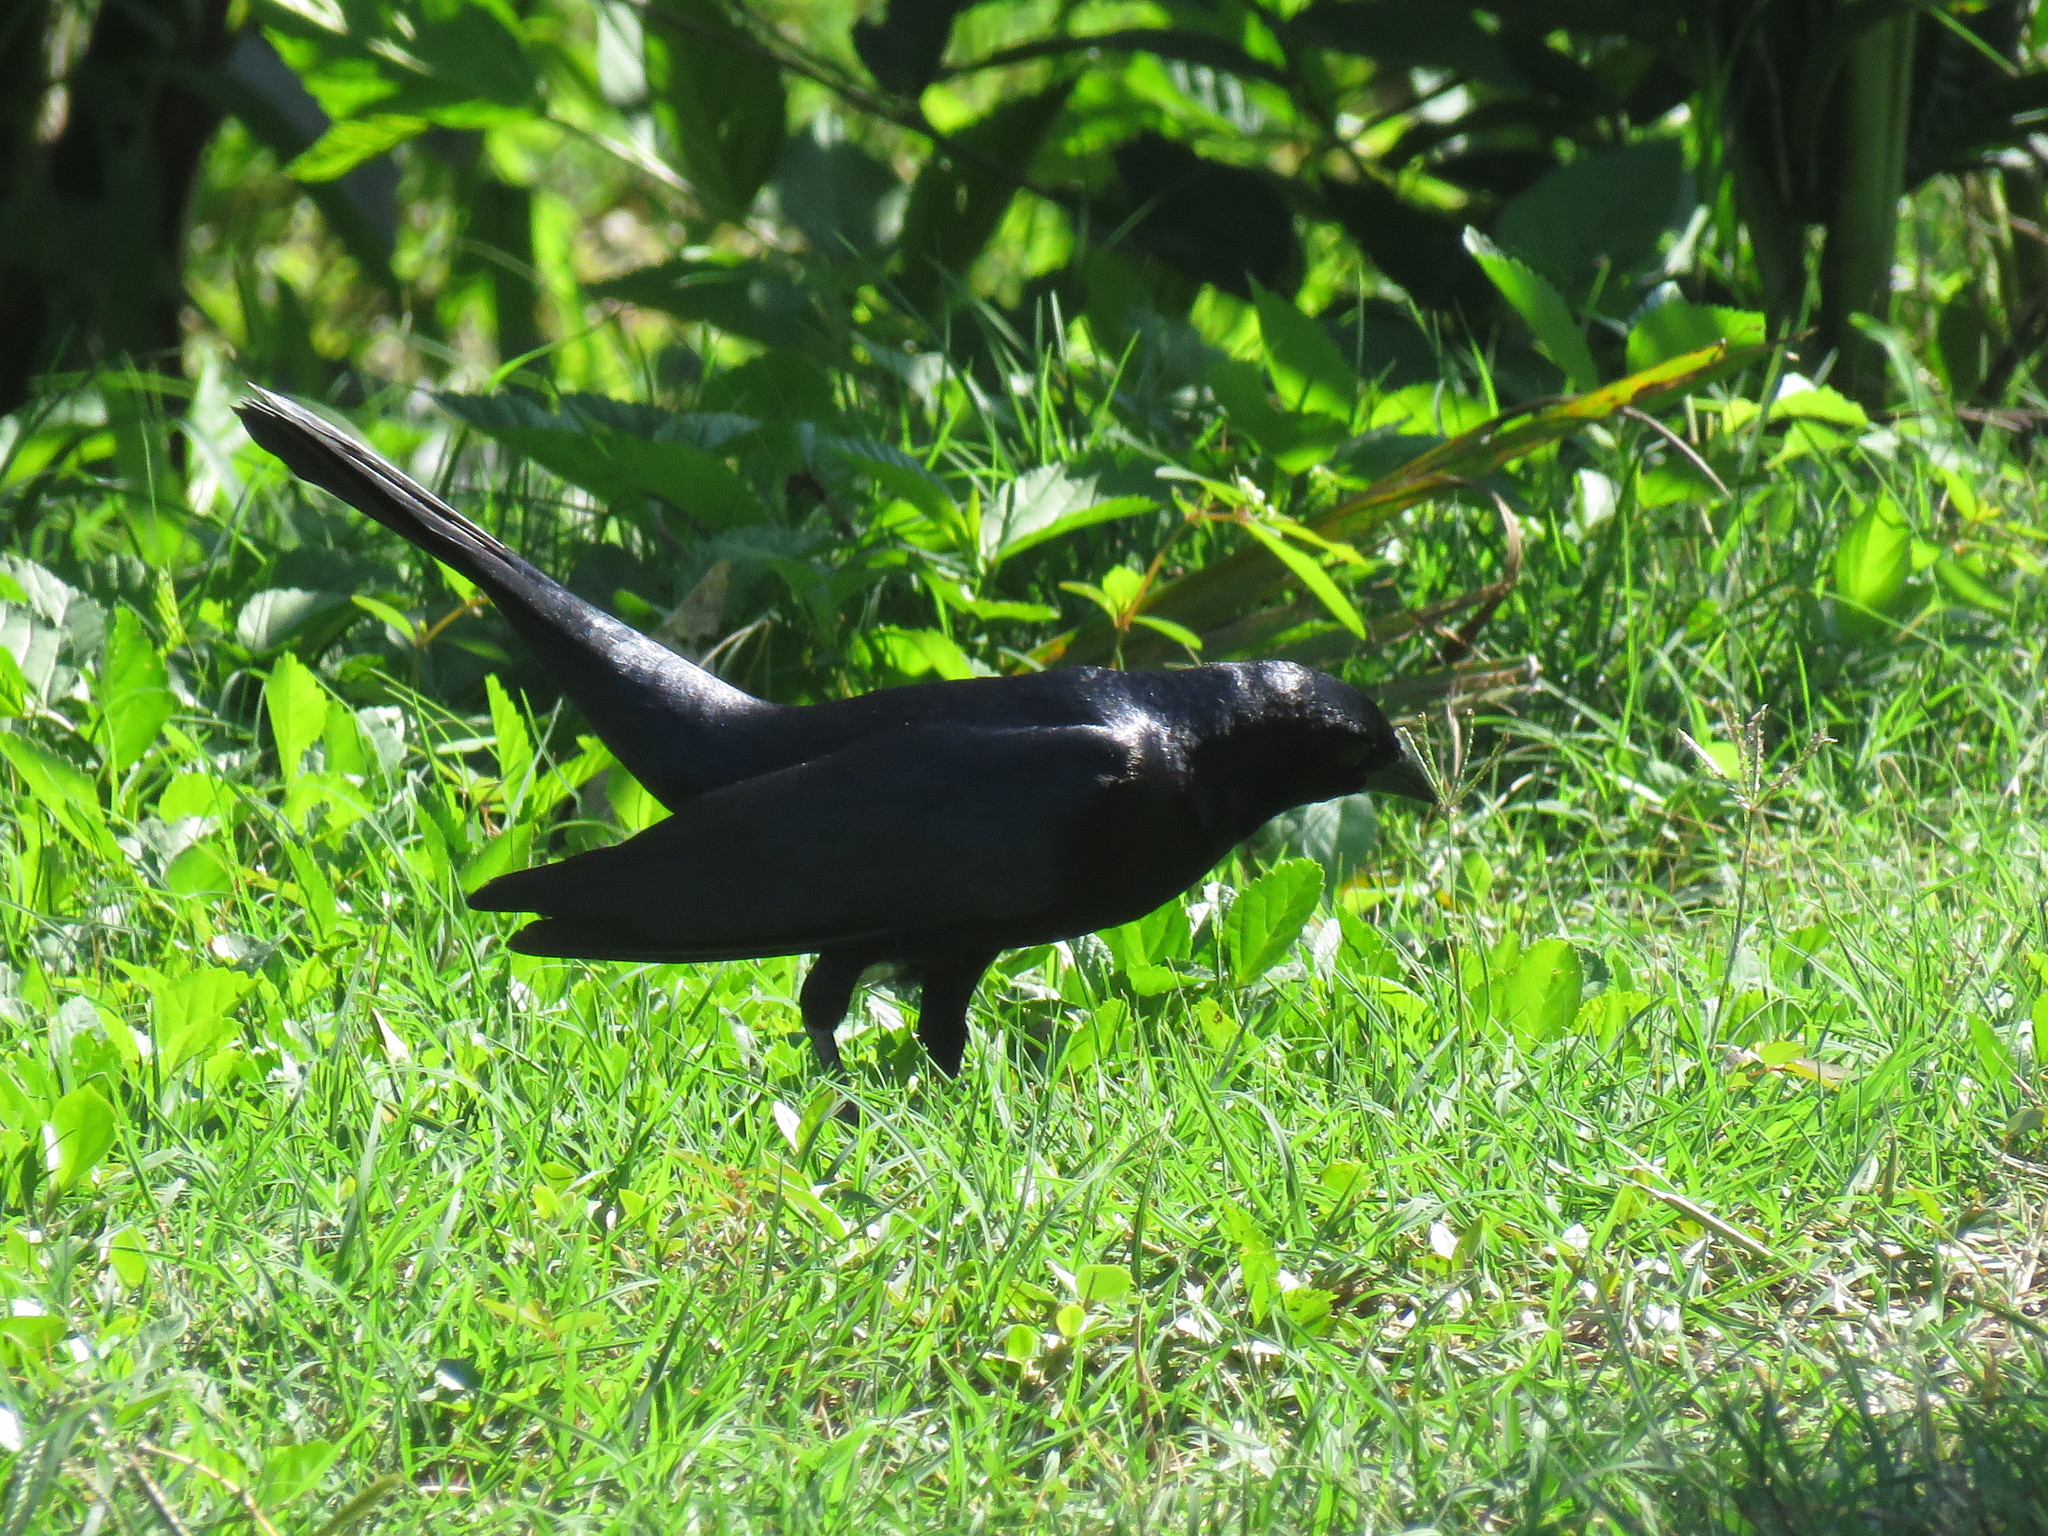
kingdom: Animalia
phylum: Chordata
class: Aves
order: Passeriformes
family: Icteridae
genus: Molothrus
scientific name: Molothrus bonariensis
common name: Shiny cowbird
